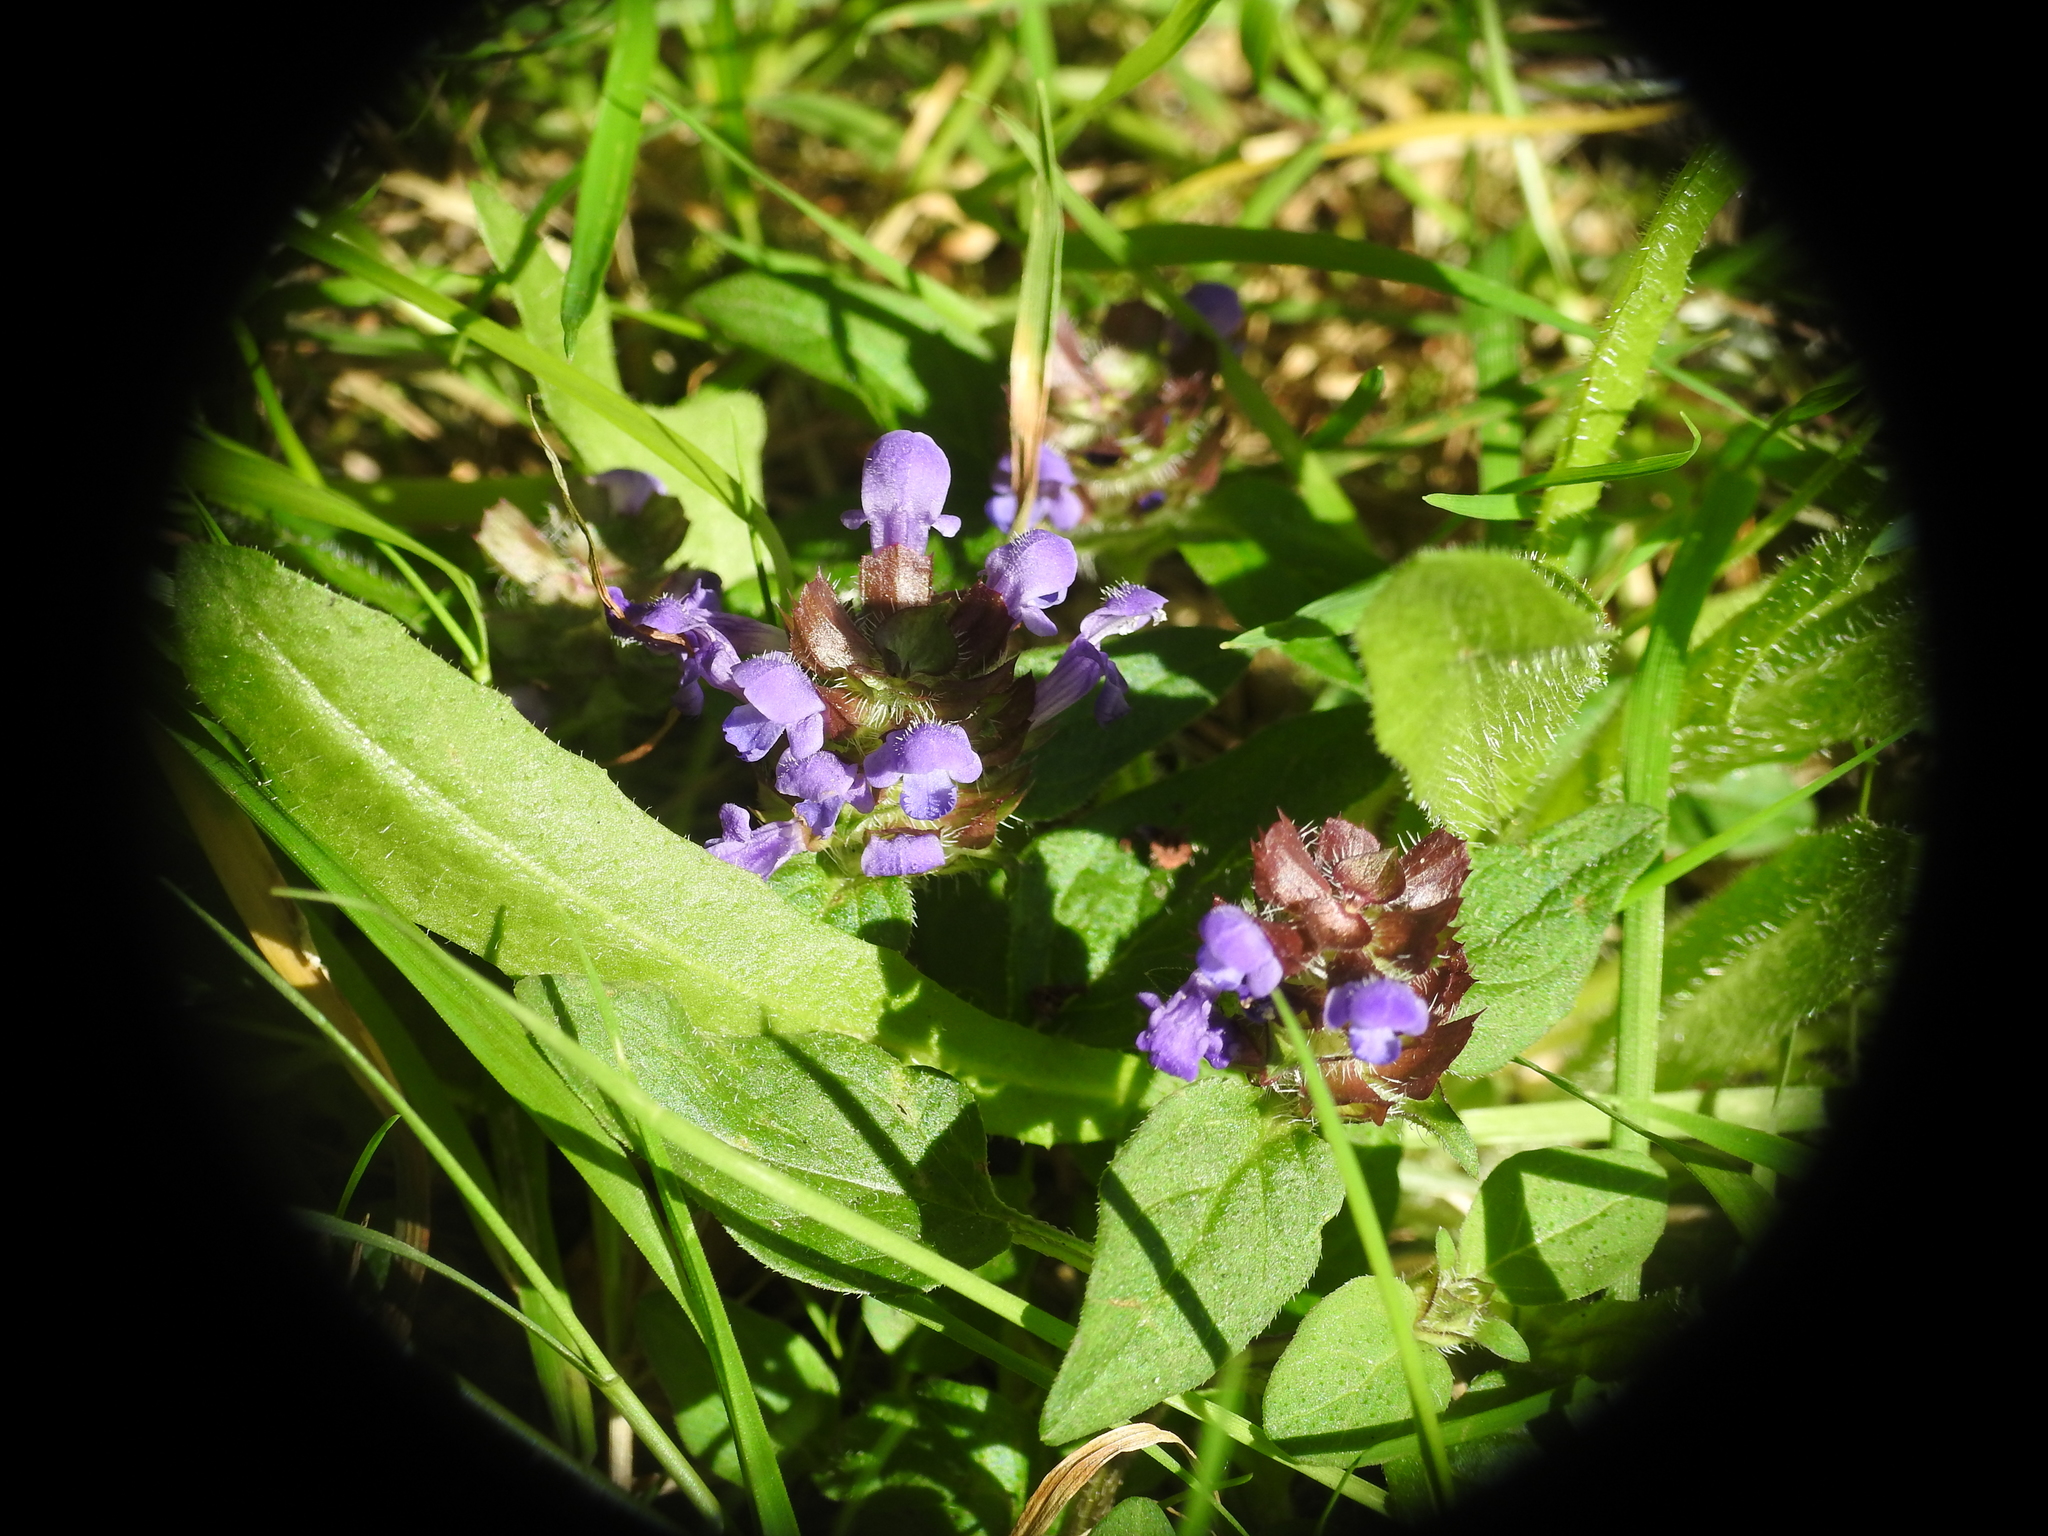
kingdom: Plantae
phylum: Tracheophyta
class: Magnoliopsida
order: Lamiales
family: Lamiaceae
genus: Prunella
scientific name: Prunella vulgaris
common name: Heal-all
